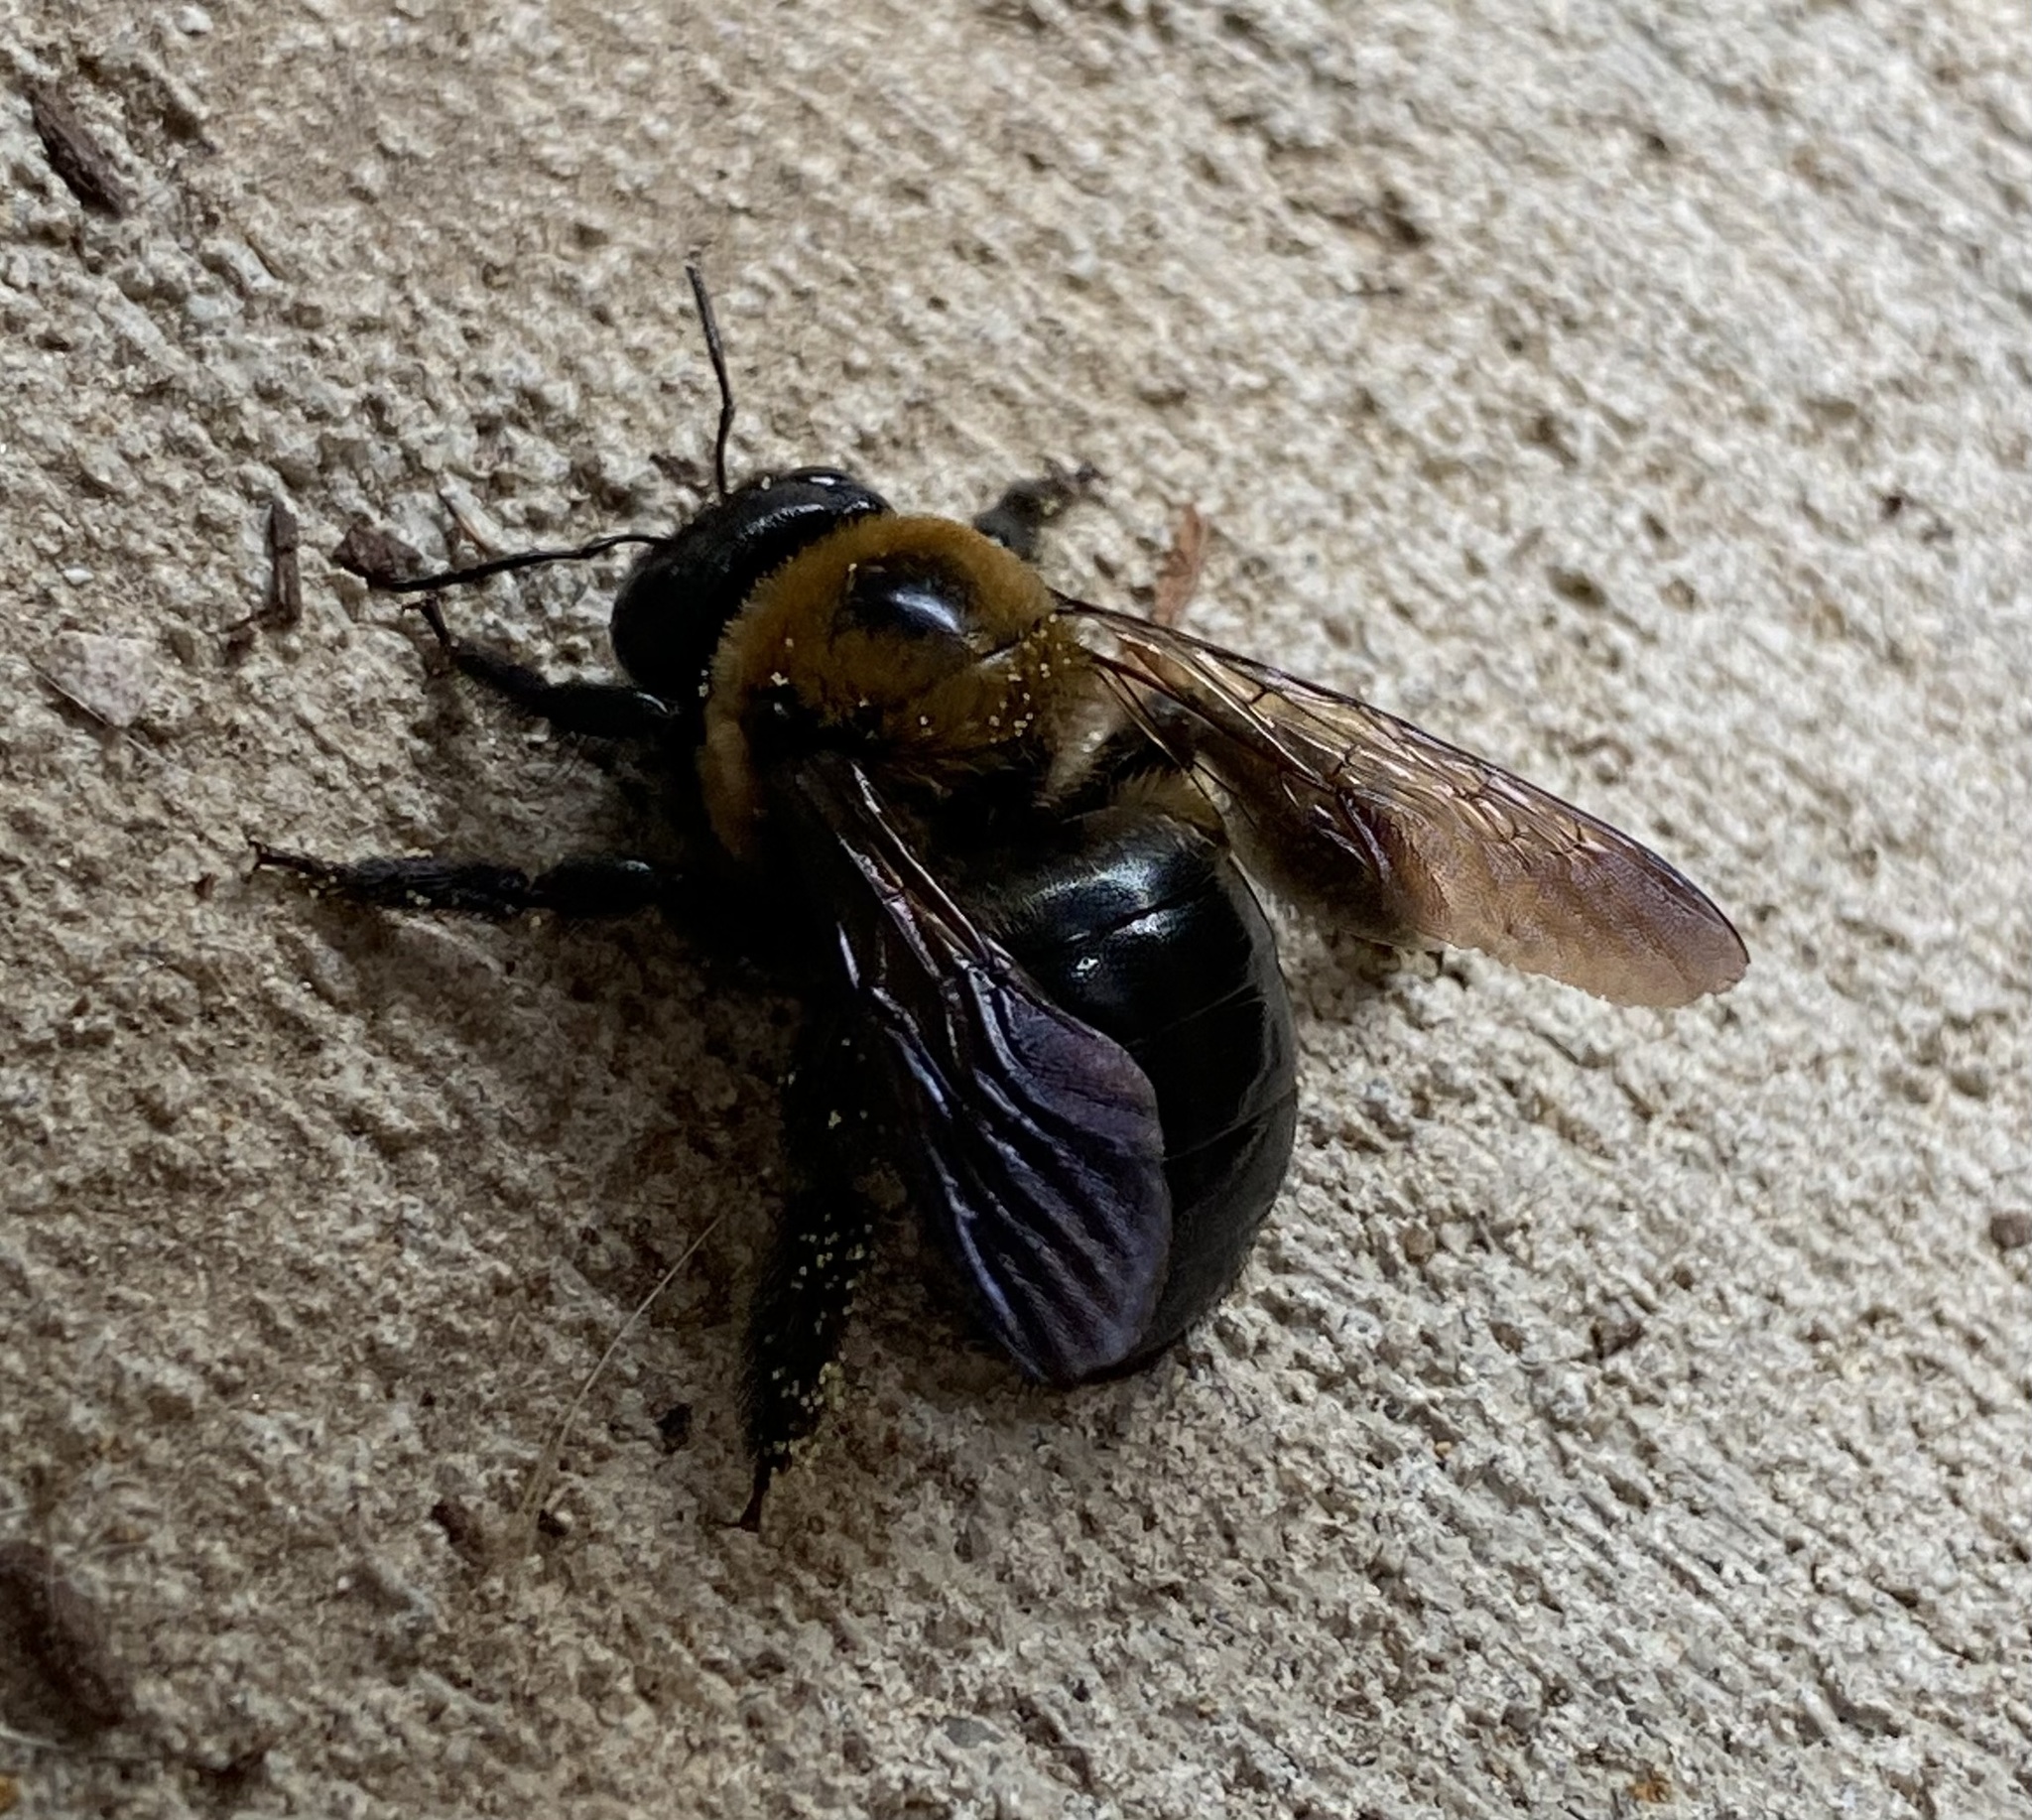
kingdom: Animalia
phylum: Arthropoda
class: Insecta
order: Hymenoptera
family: Apidae
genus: Xylocopa
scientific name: Xylocopa virginica
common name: Carpenter bee
